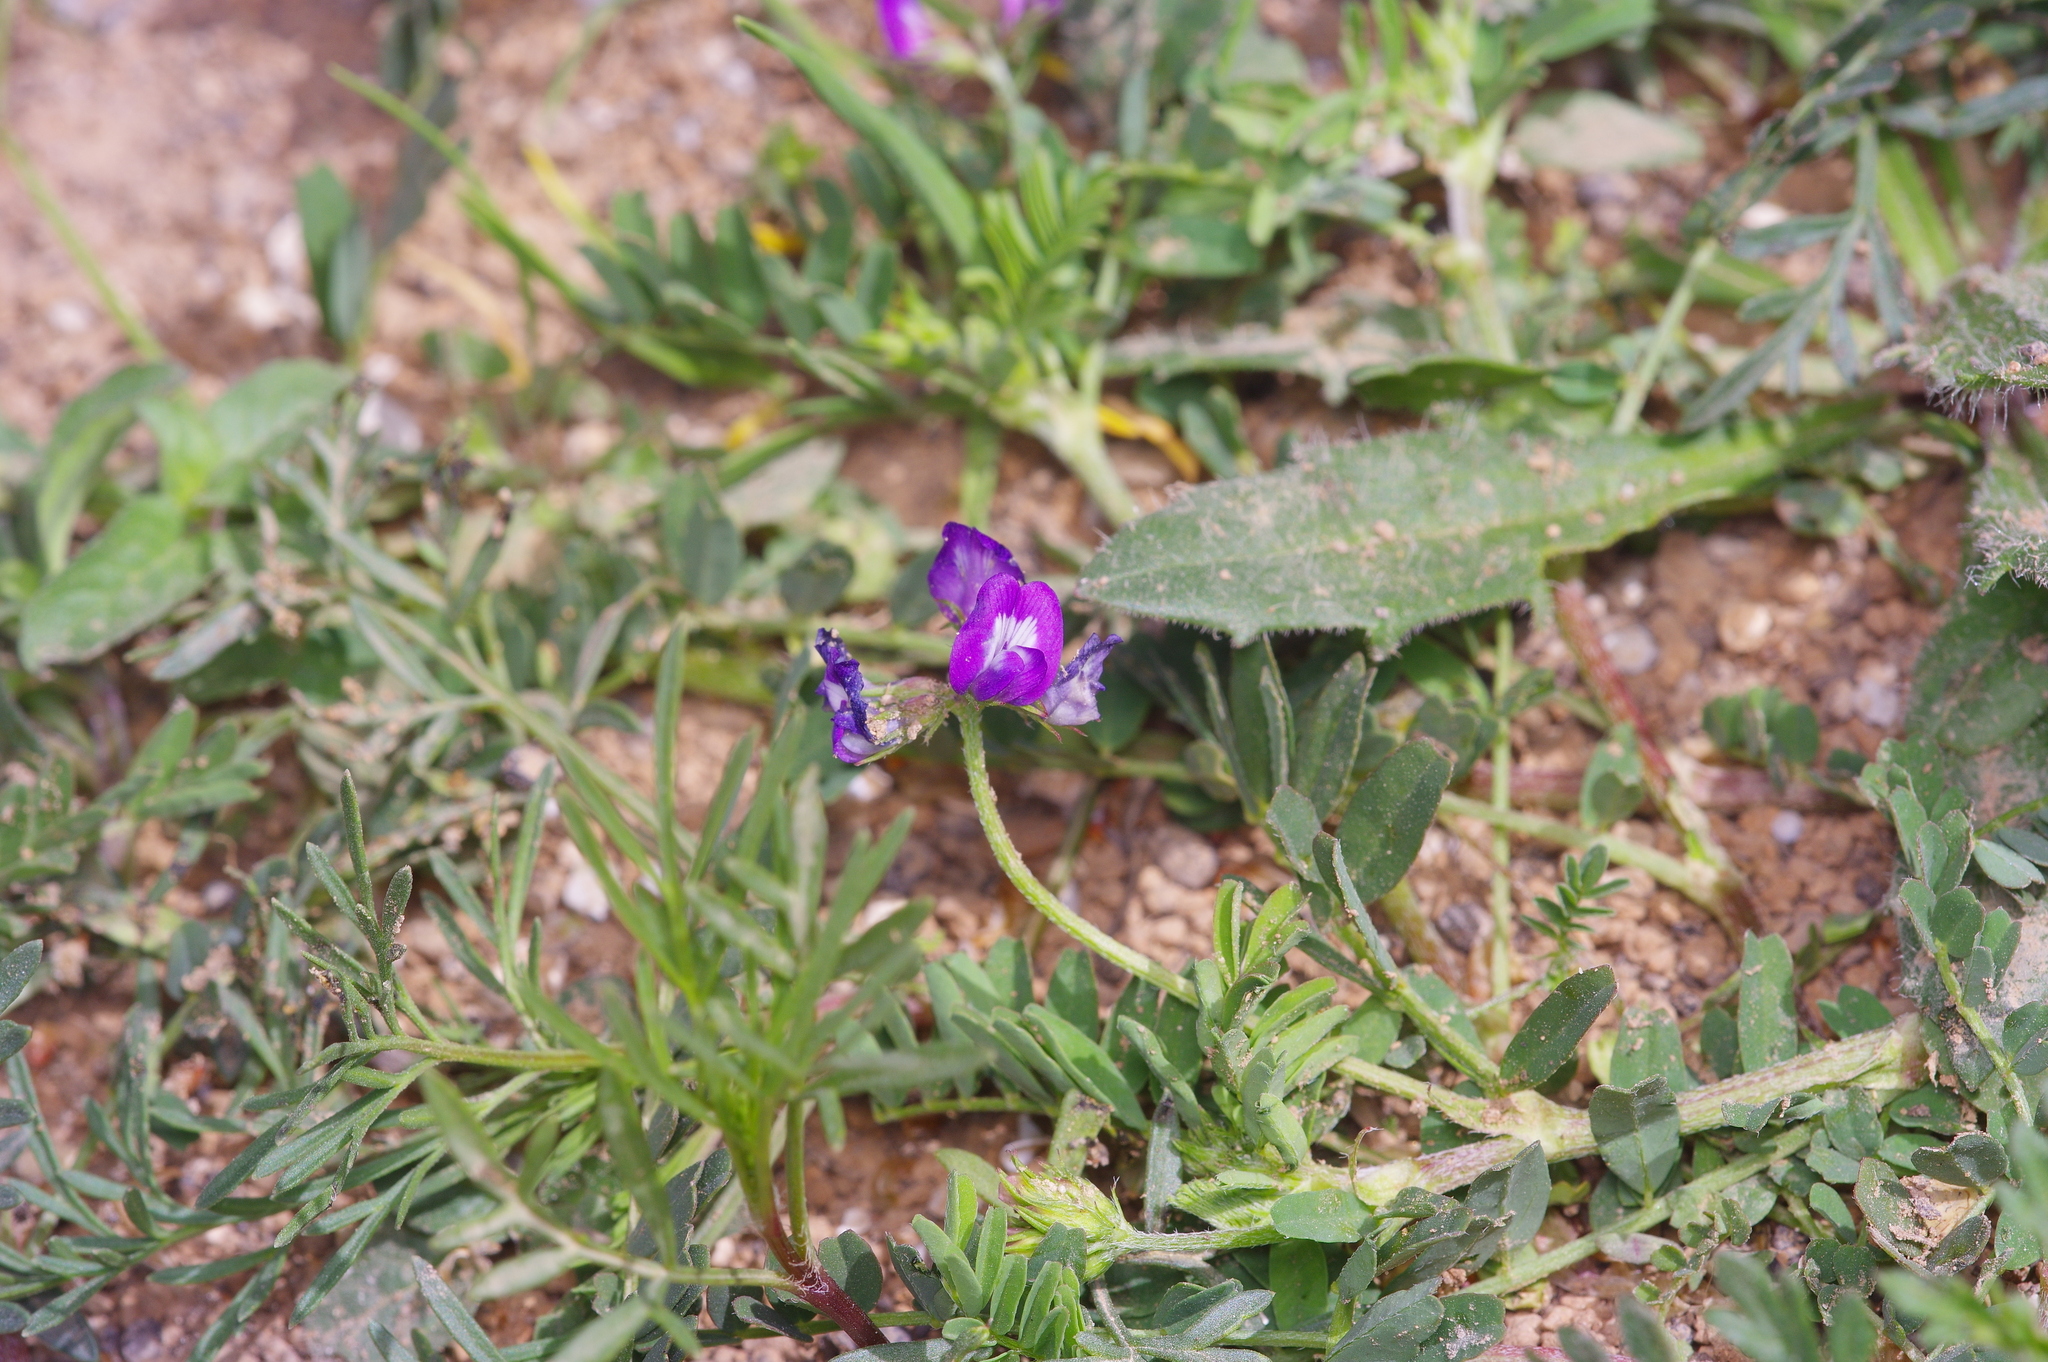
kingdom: Plantae
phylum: Tracheophyta
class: Magnoliopsida
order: Fabales
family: Fabaceae
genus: Astragalus
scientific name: Astragalus nuttallianus
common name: Smallflowered milkvetch
